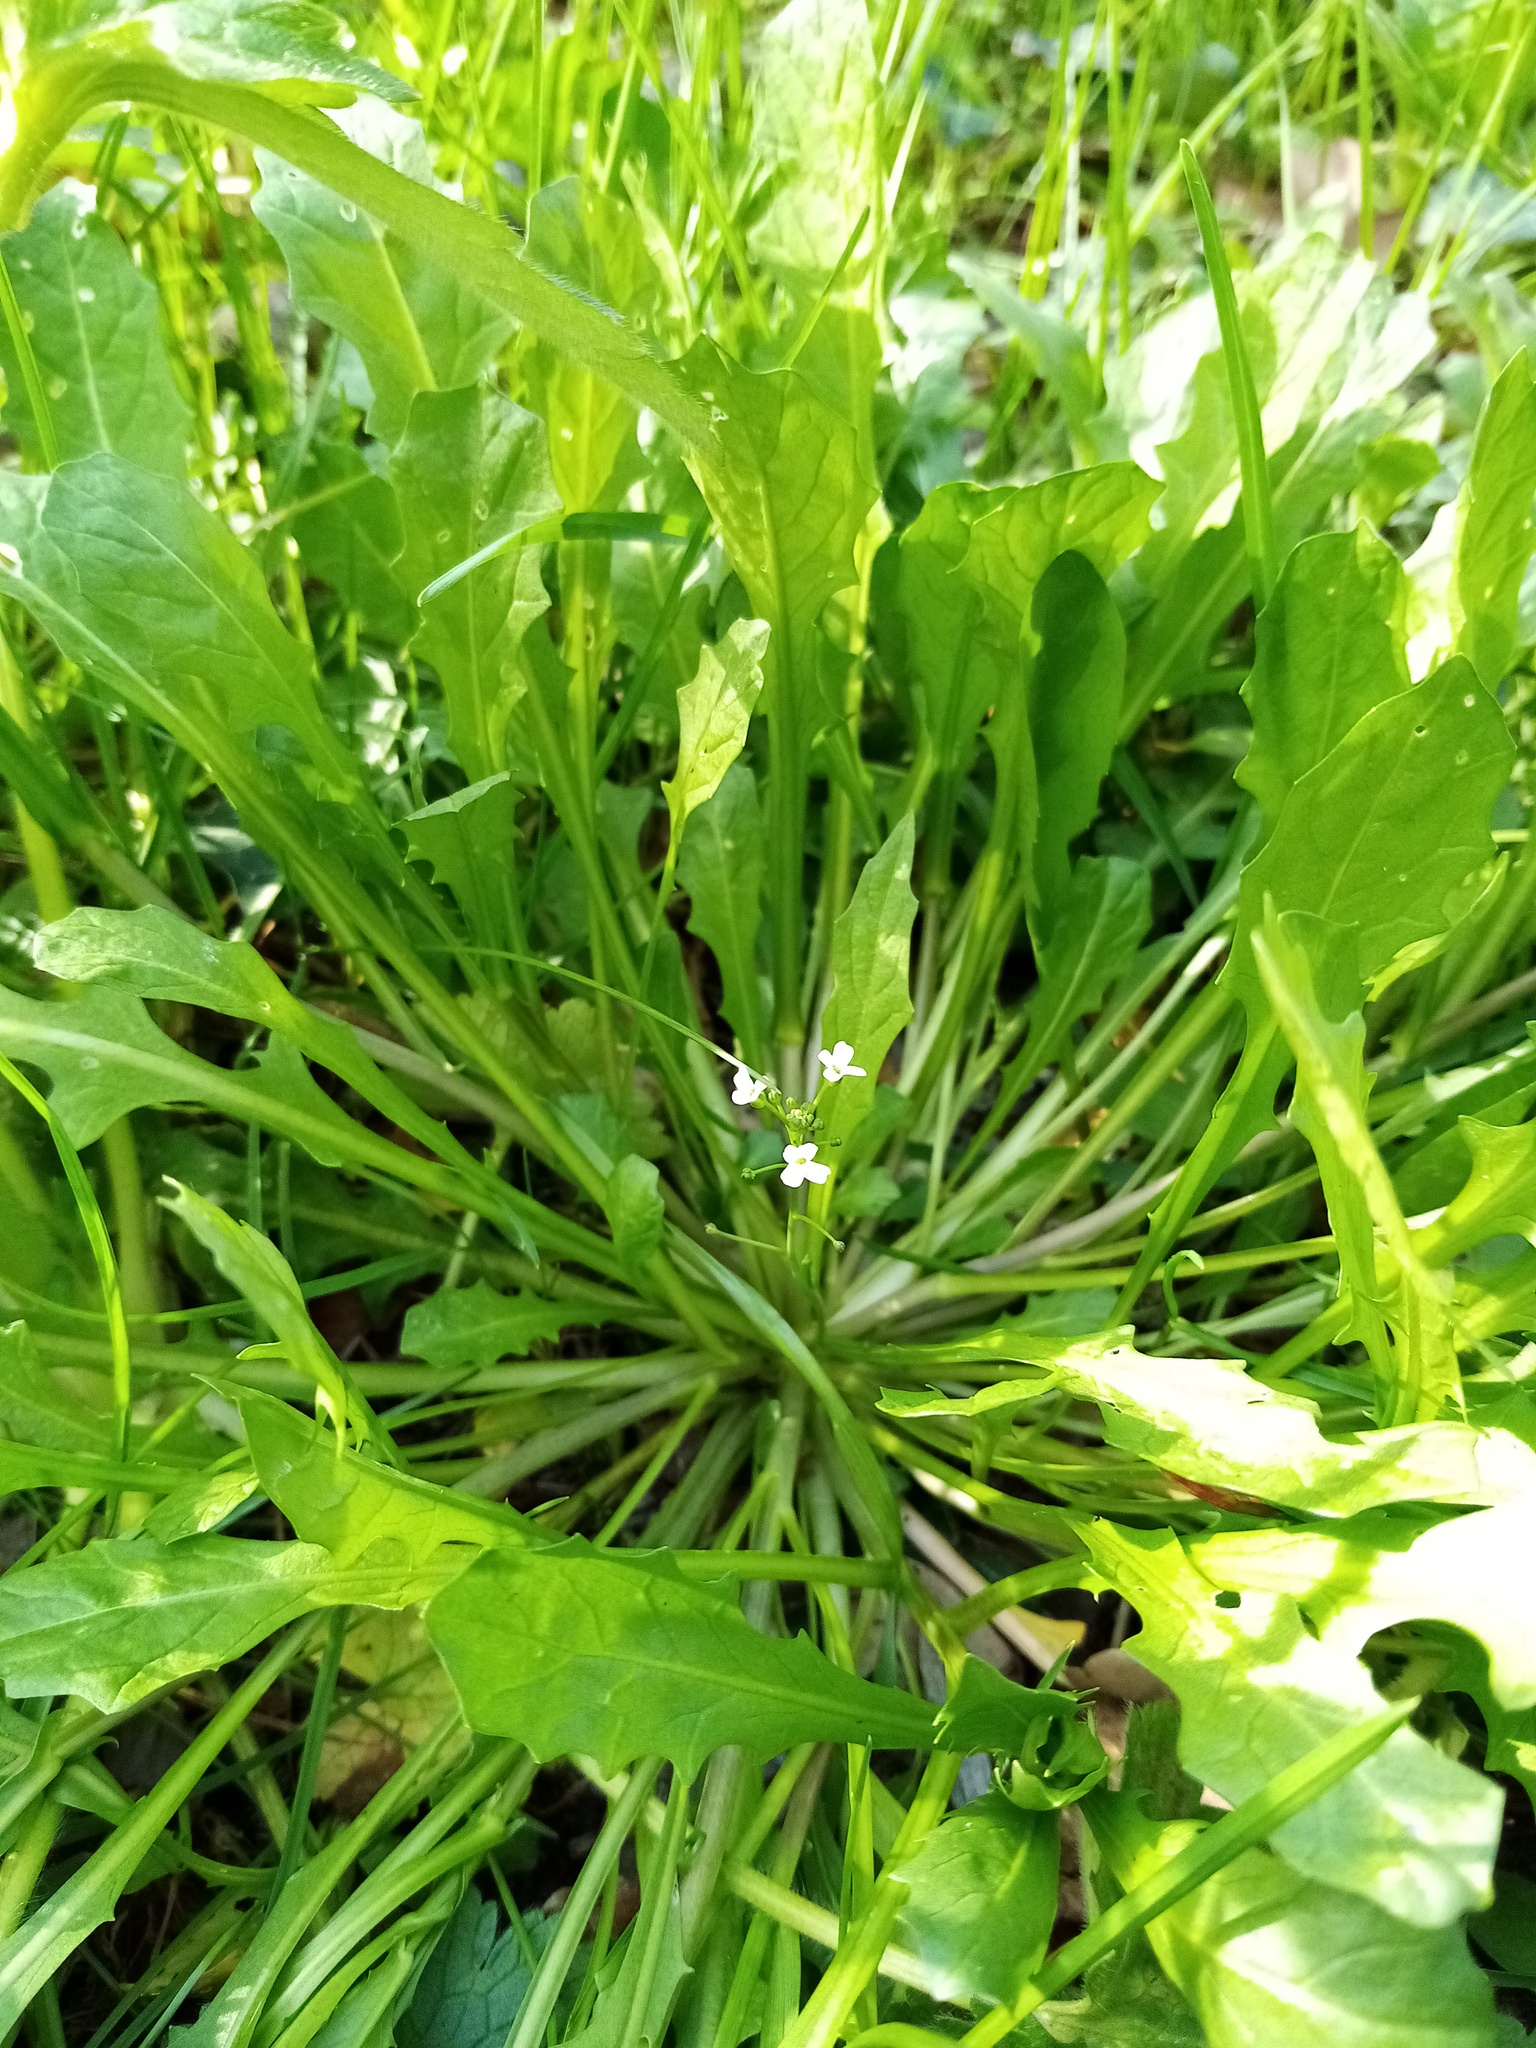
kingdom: Plantae
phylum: Tracheophyta
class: Magnoliopsida
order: Brassicales
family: Brassicaceae
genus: Calepina
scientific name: Calepina irregularis
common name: White ballmustard
